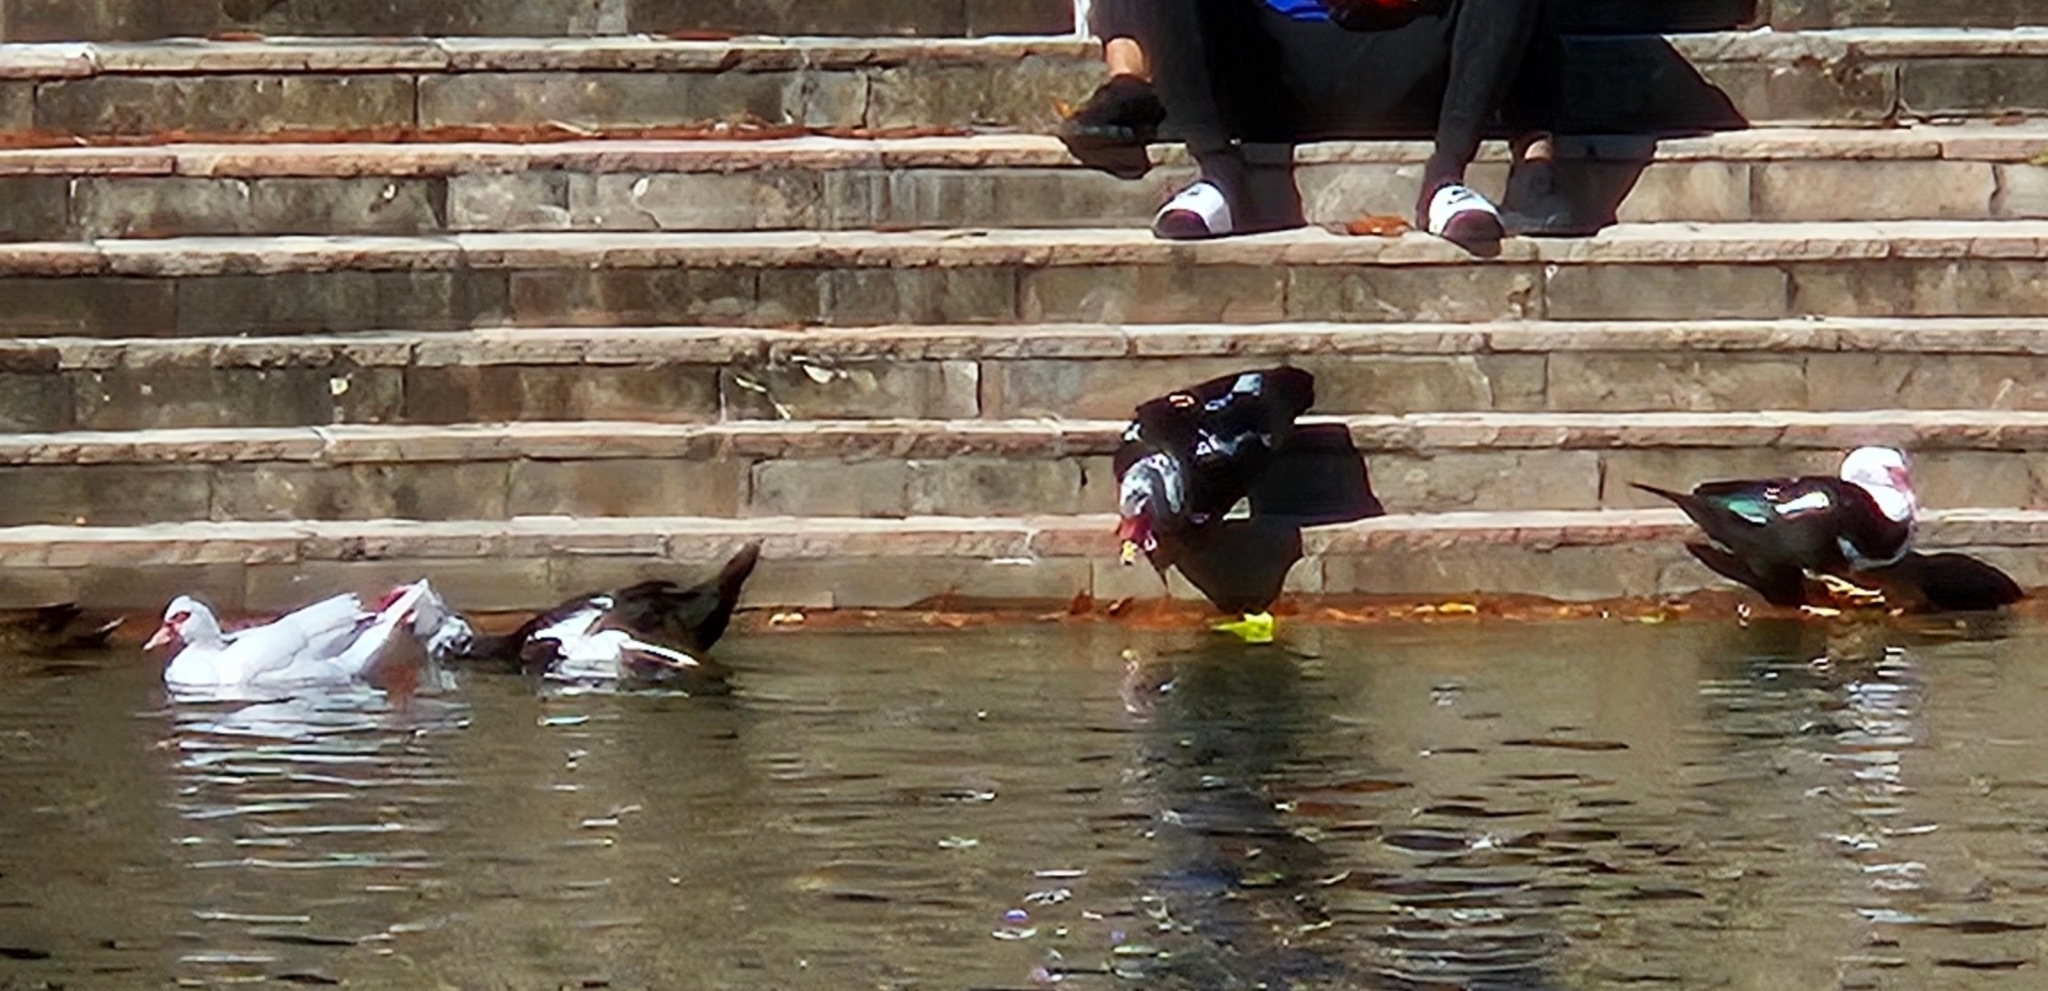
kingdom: Animalia
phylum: Chordata
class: Aves
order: Anseriformes
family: Anatidae
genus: Cairina
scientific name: Cairina moschata
